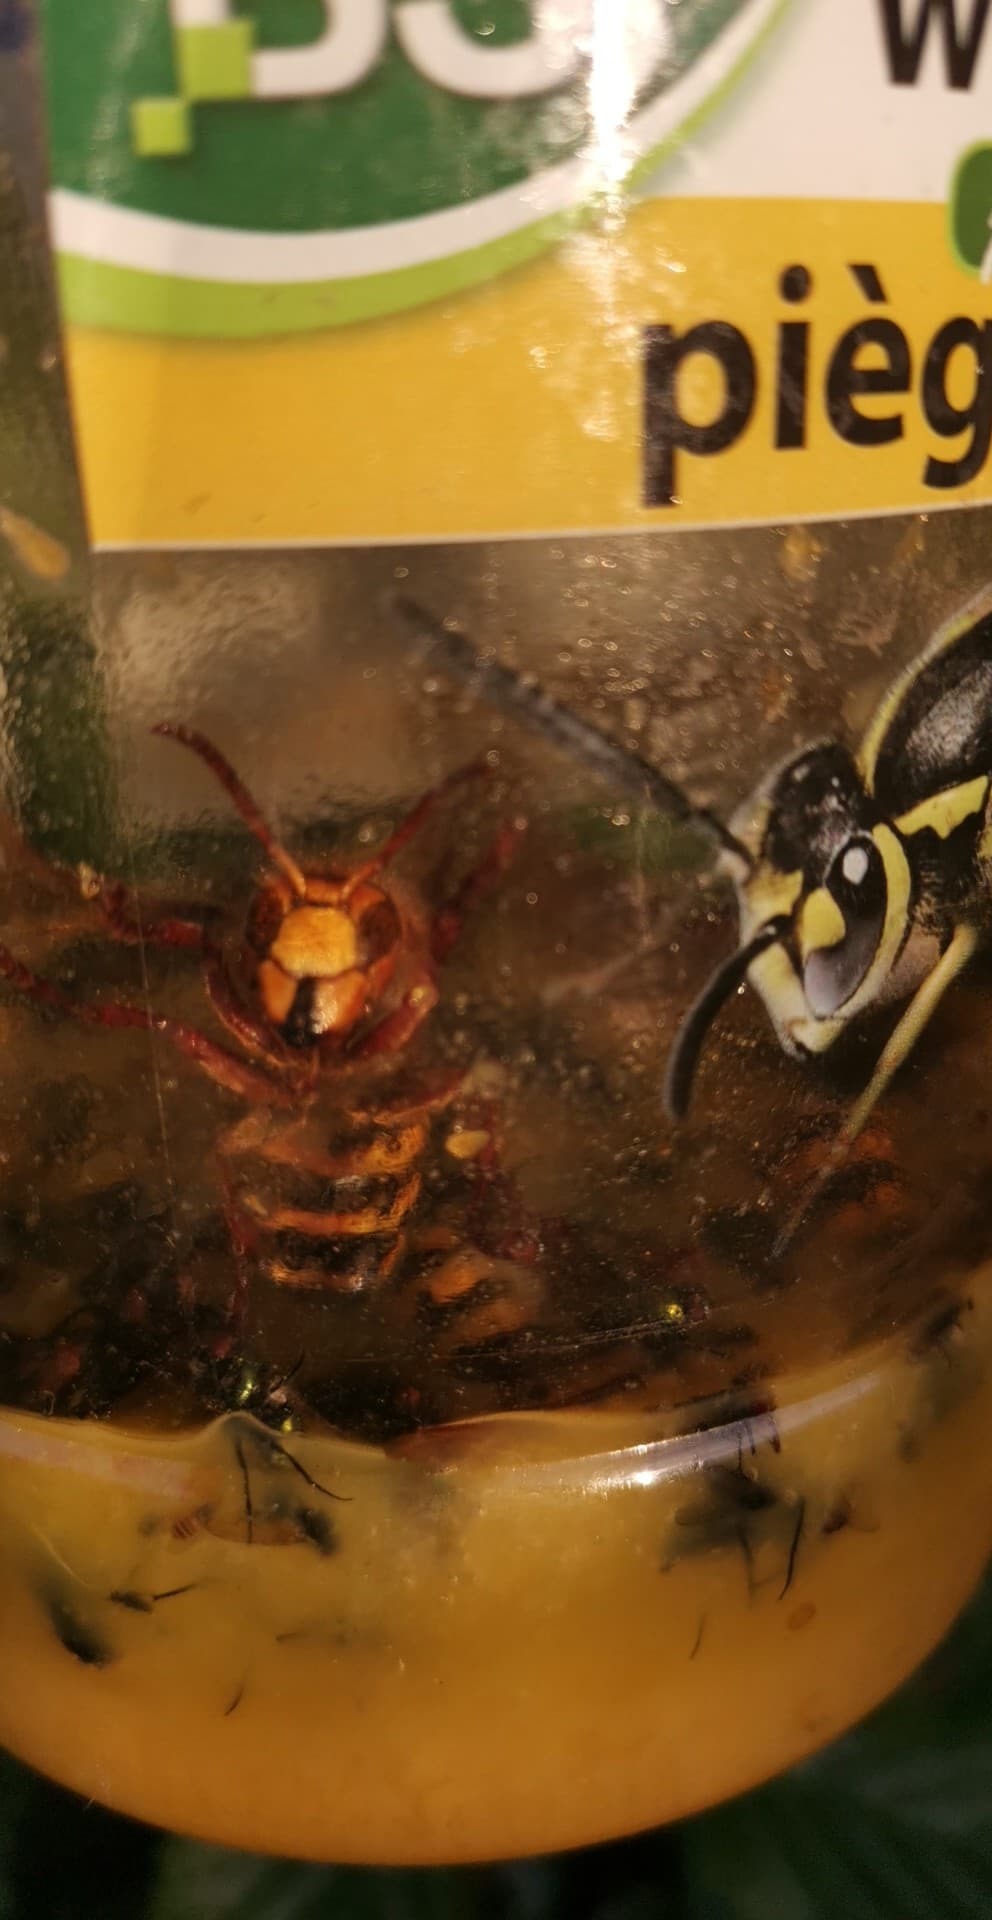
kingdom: Animalia
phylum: Arthropoda
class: Insecta
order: Hymenoptera
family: Vespidae
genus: Vespa
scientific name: Vespa crabro
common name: Hornet
